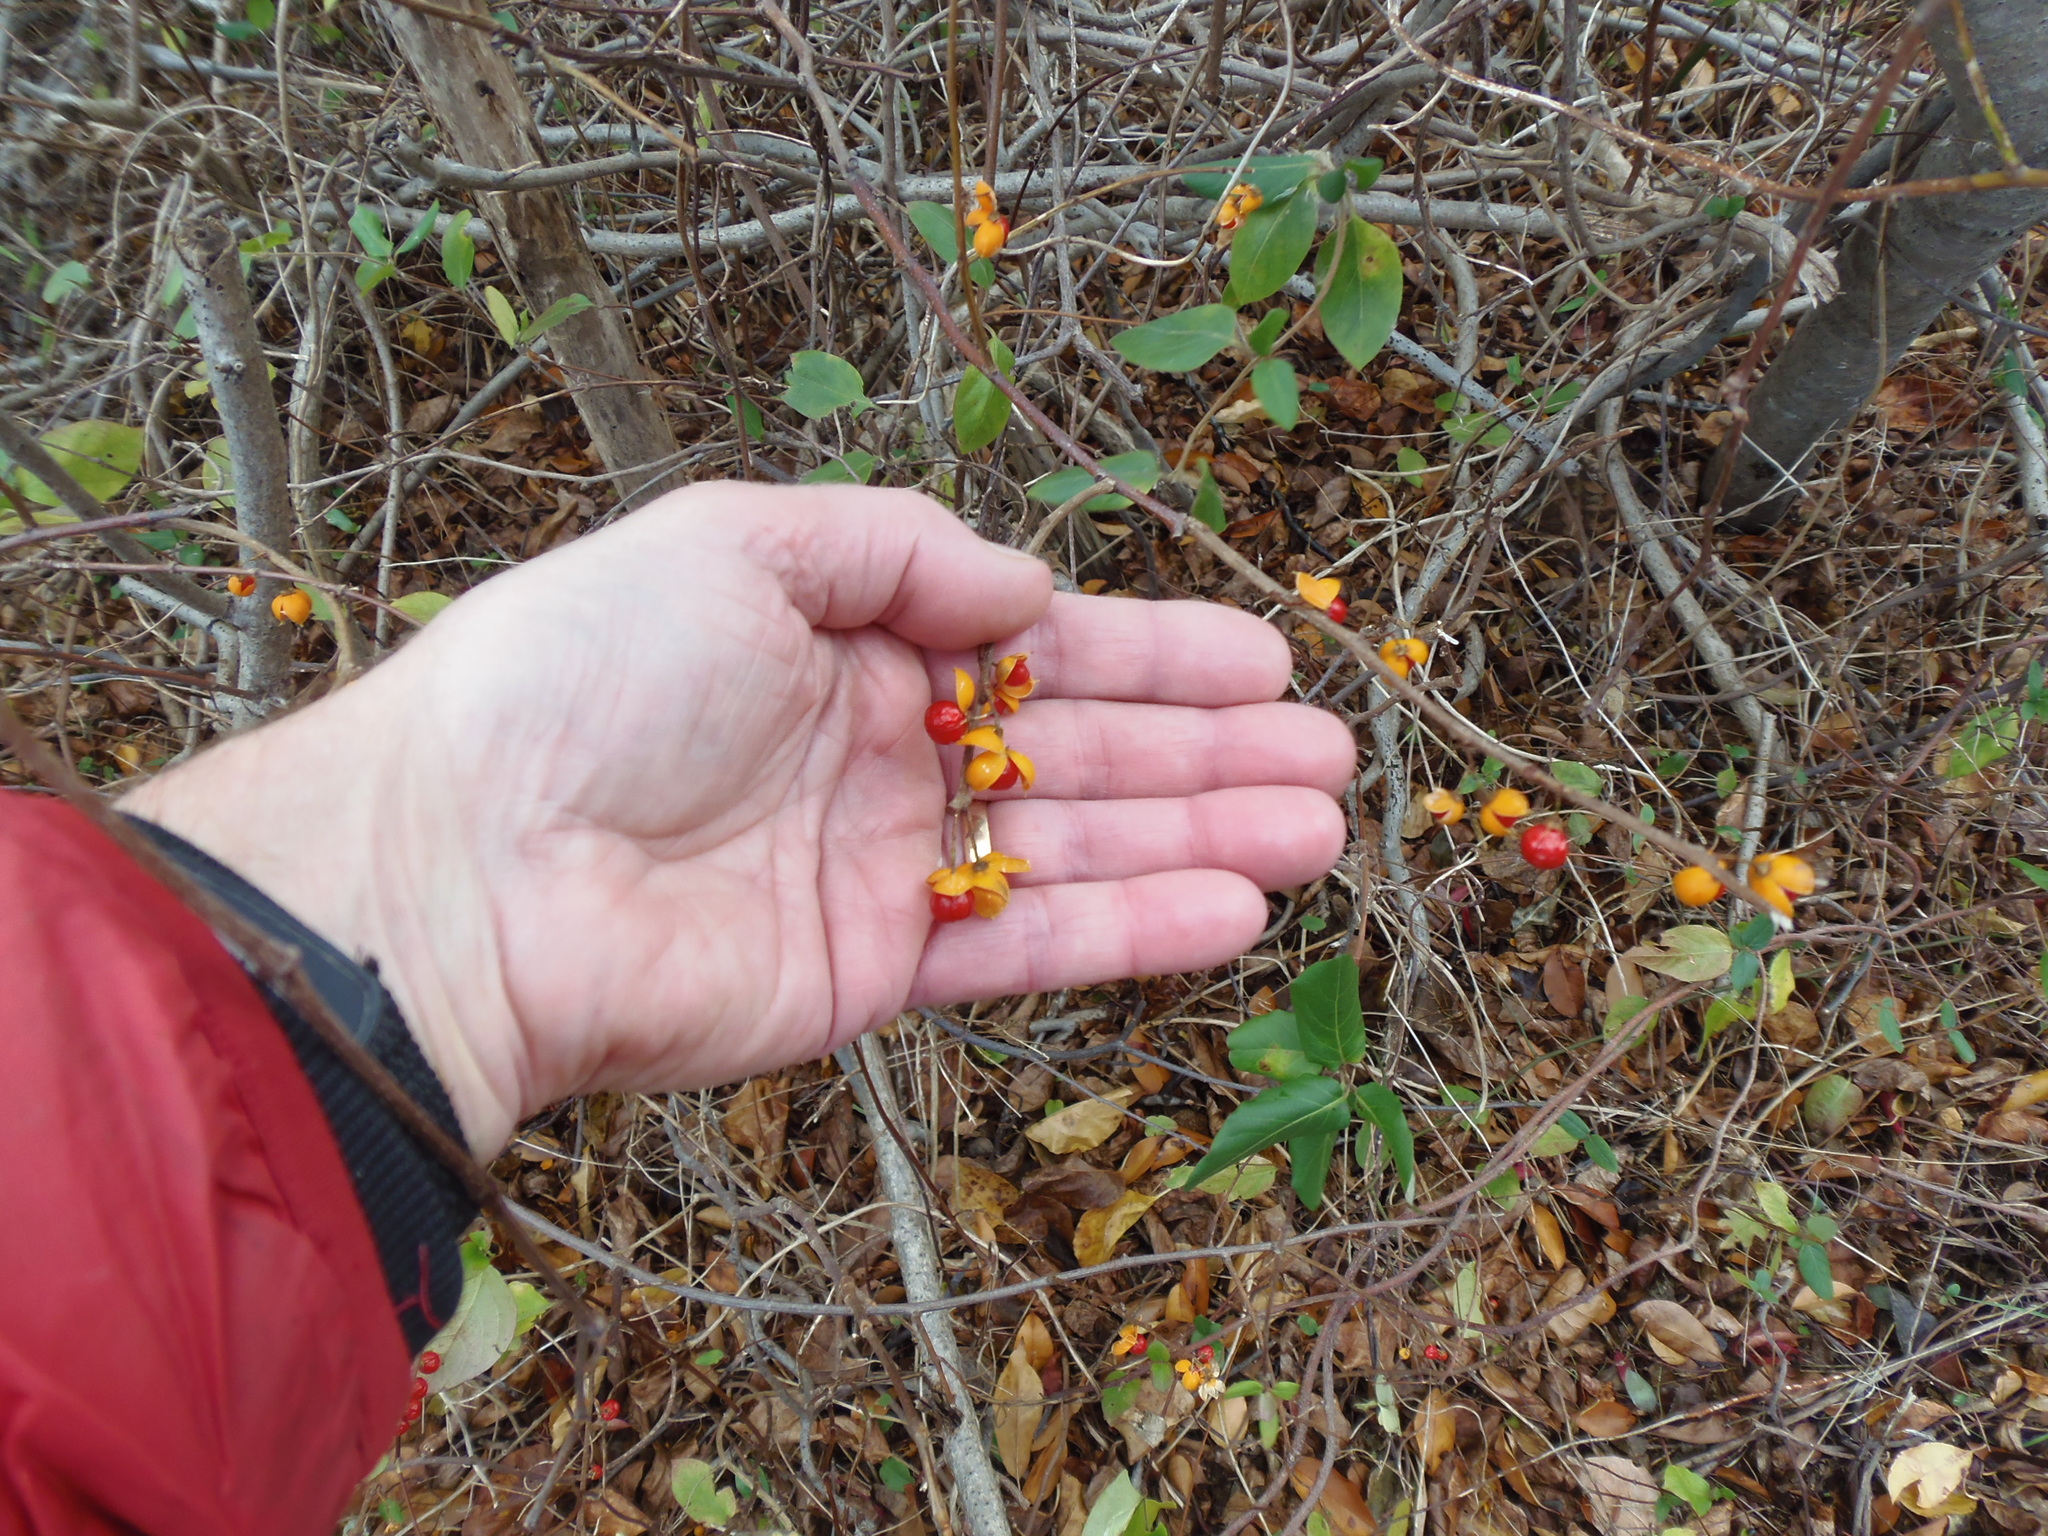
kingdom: Plantae
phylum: Tracheophyta
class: Magnoliopsida
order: Celastrales
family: Celastraceae
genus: Celastrus
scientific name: Celastrus orbiculatus
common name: Oriental bittersweet
